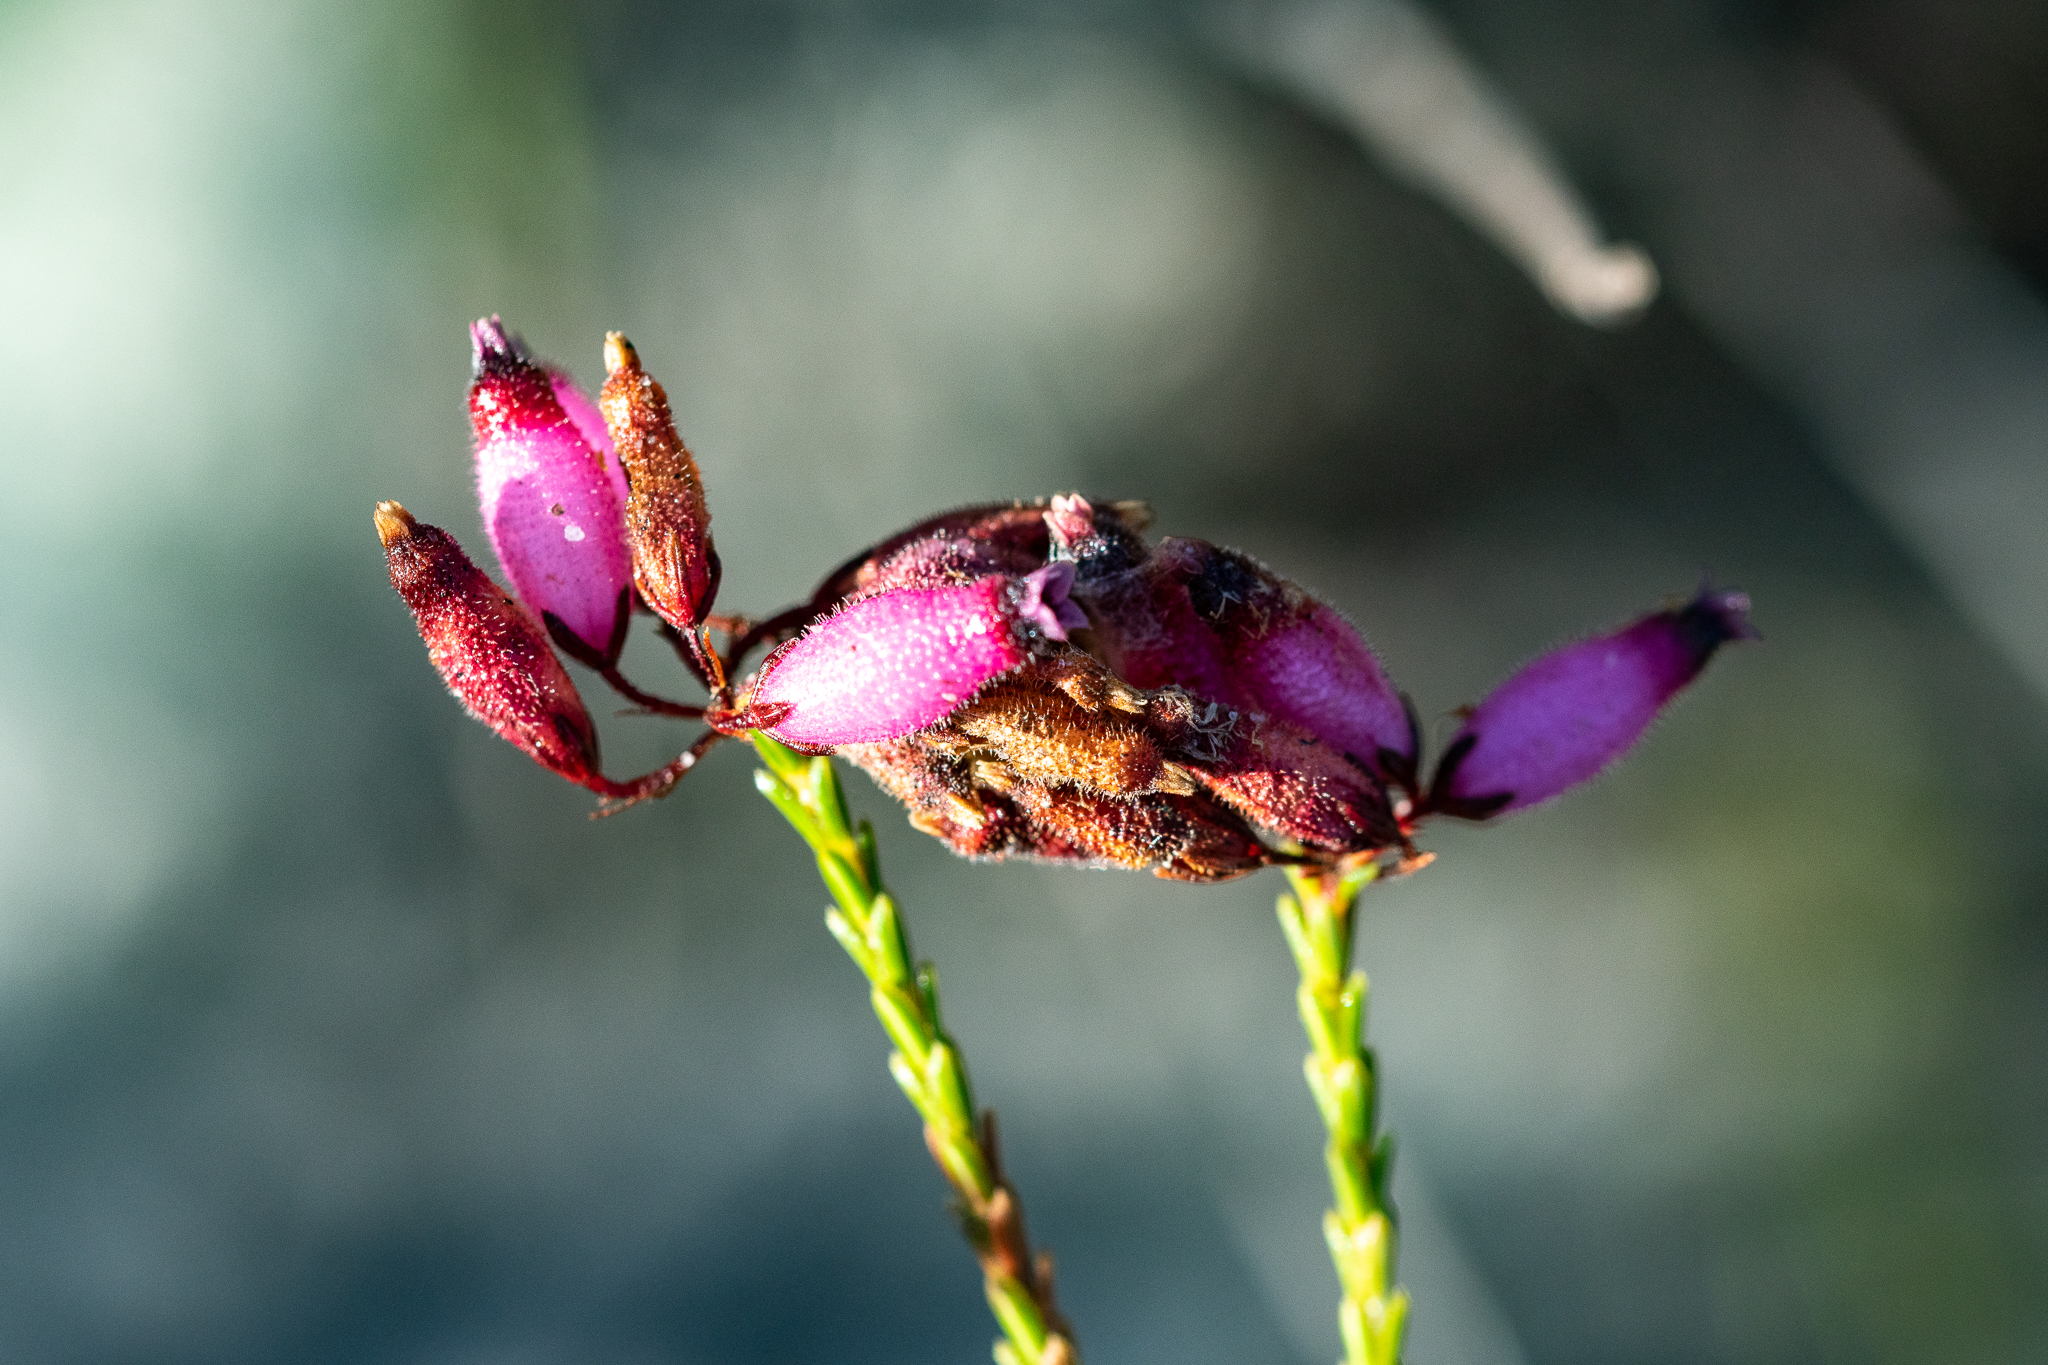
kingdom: Plantae
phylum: Tracheophyta
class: Magnoliopsida
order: Ericales
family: Ericaceae
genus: Erica
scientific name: Erica cristata
